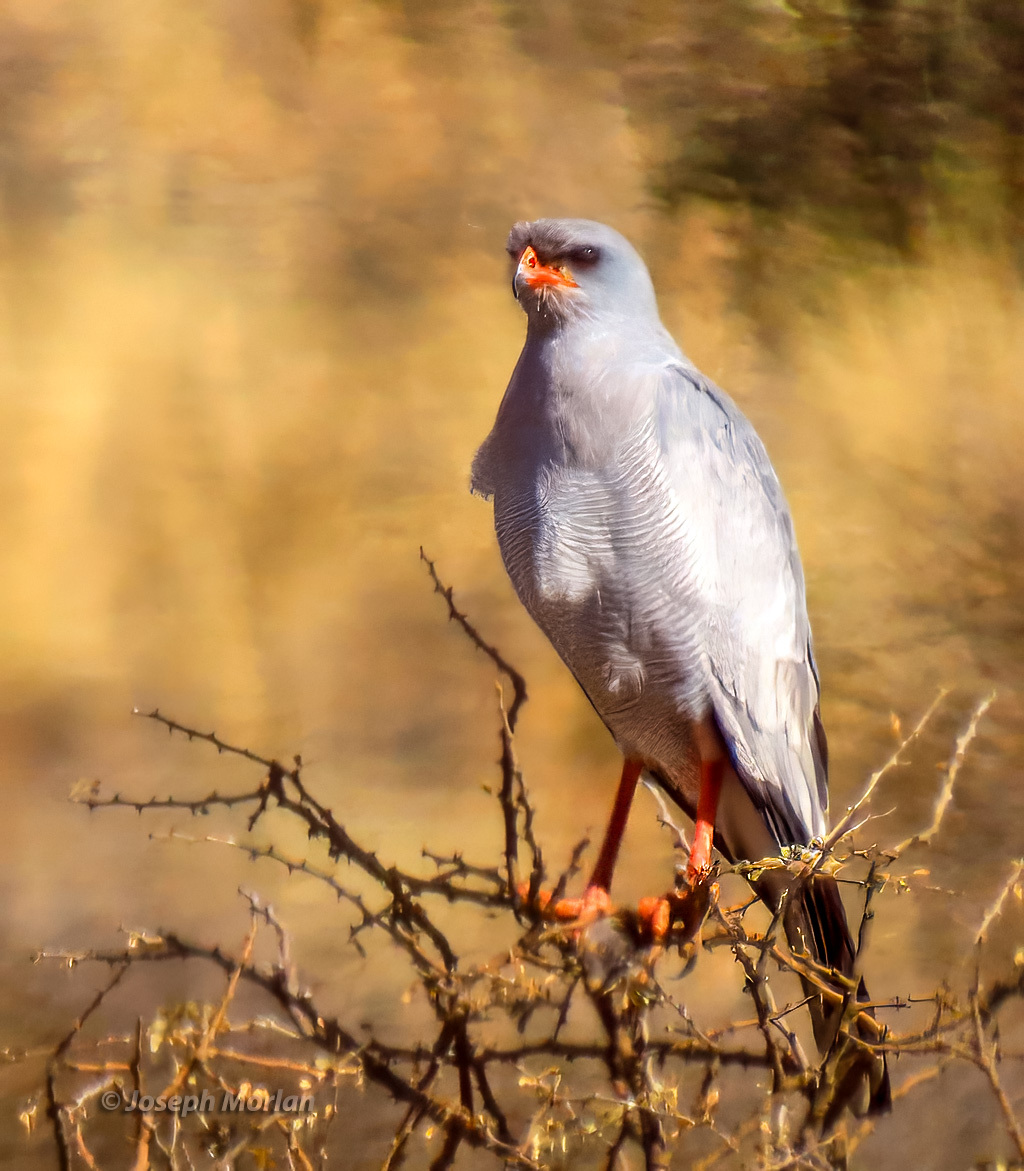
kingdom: Animalia
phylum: Chordata
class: Aves
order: Accipitriformes
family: Accipitridae
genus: Melierax
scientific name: Melierax canorus
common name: Pale chanting-goshawk
